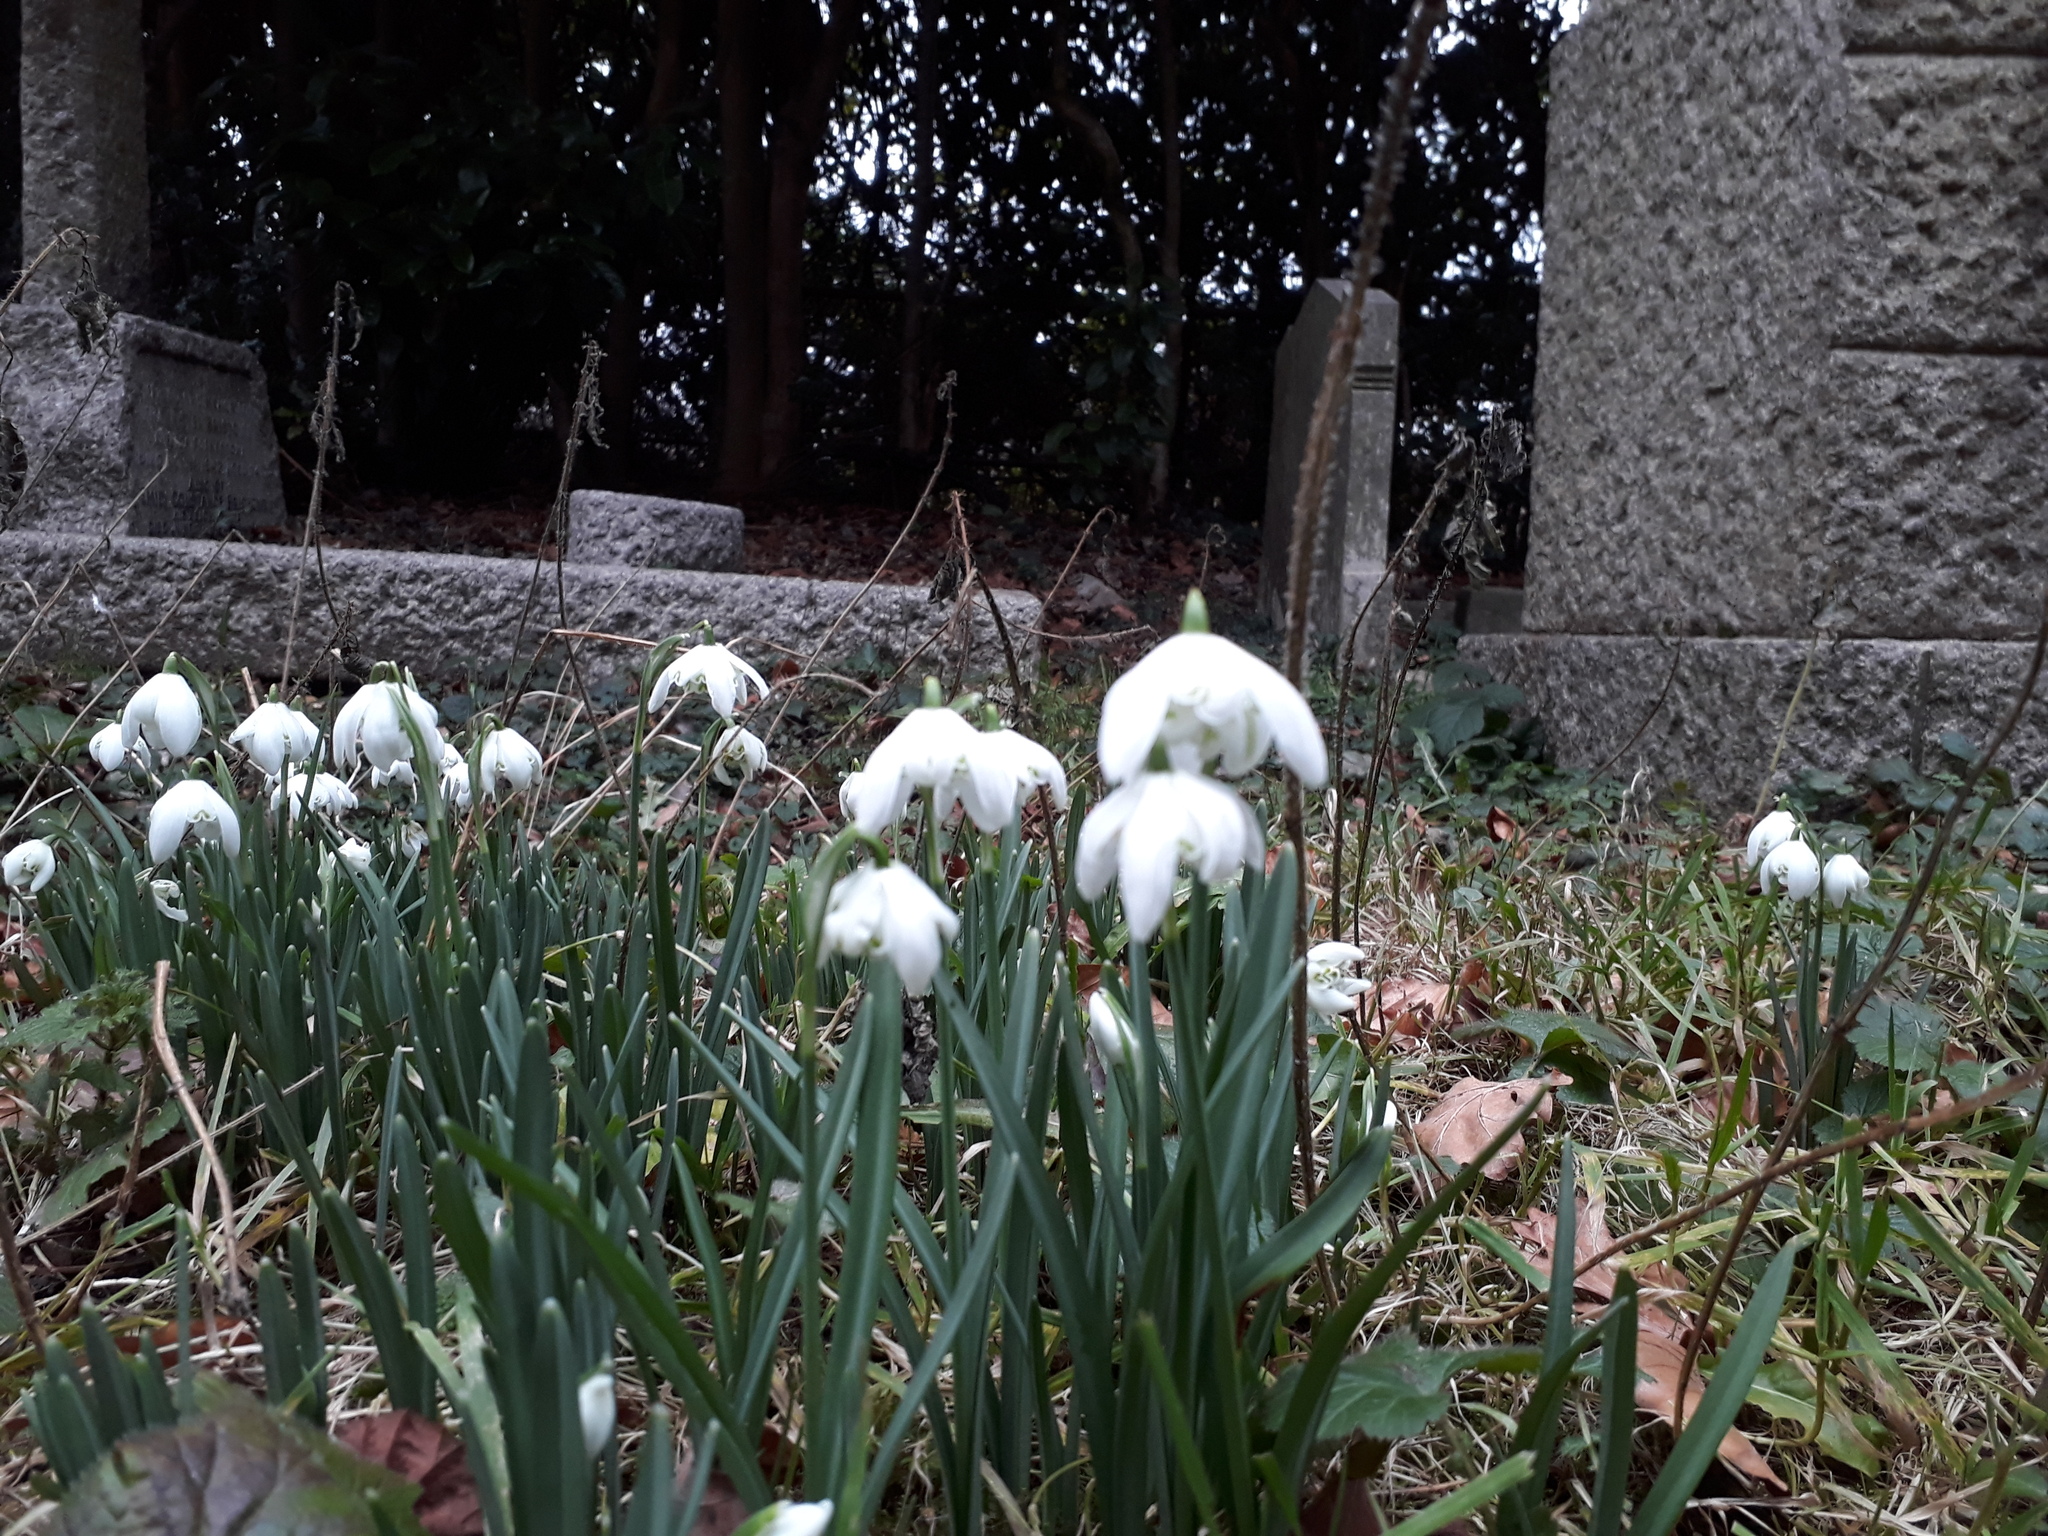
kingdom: Plantae
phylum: Tracheophyta
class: Liliopsida
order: Asparagales
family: Amaryllidaceae
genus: Galanthus
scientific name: Galanthus nivalis
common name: Snowdrop
